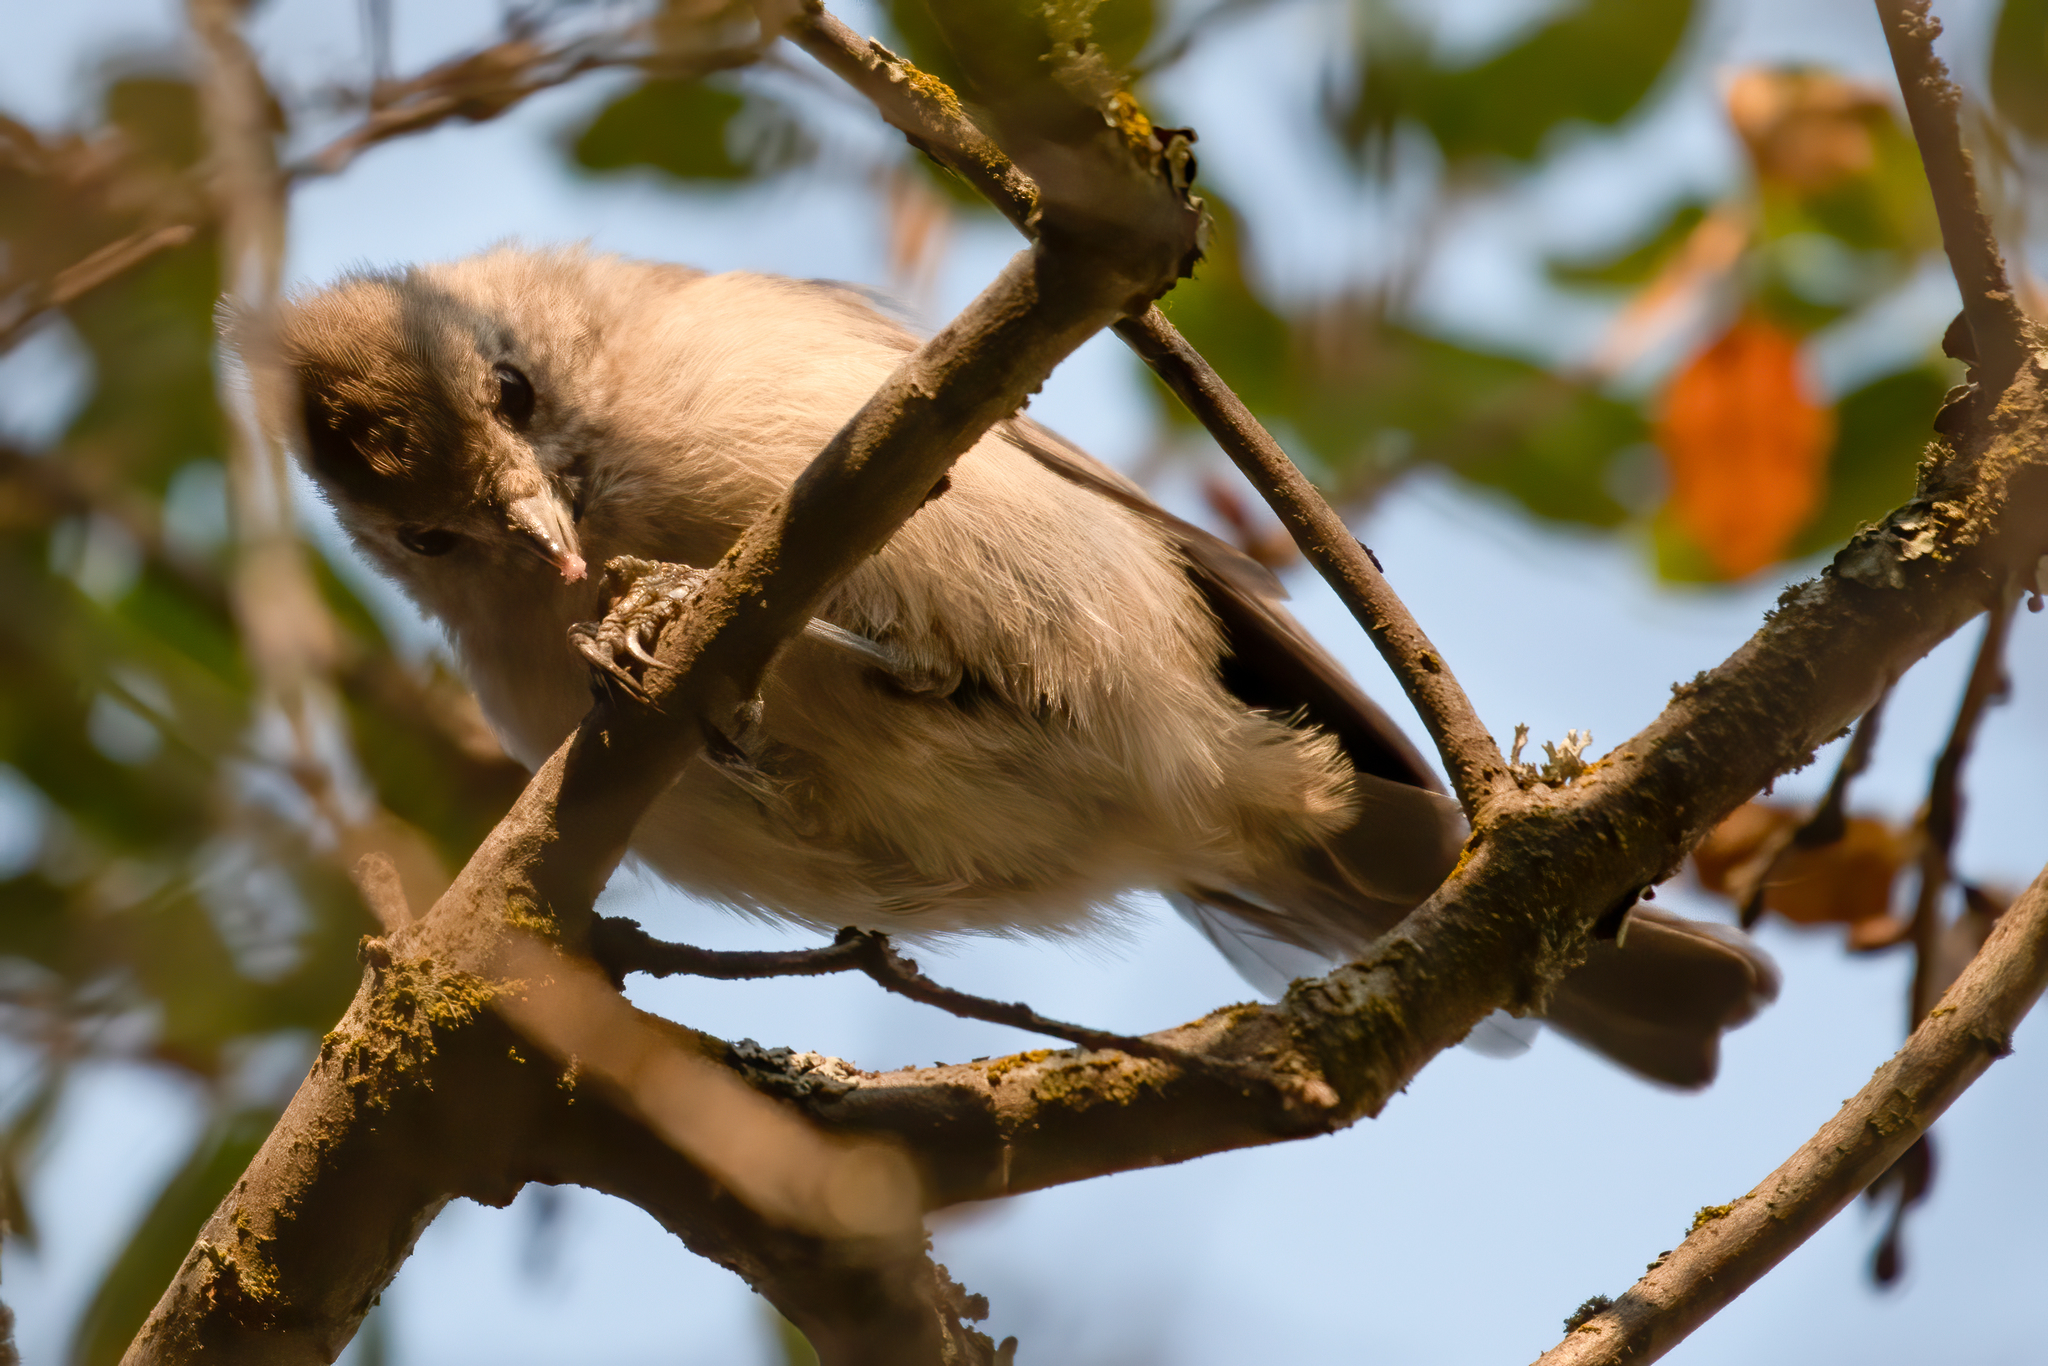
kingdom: Animalia
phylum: Chordata
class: Aves
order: Passeriformes
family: Paridae
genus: Baeolophus
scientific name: Baeolophus inornatus
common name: Oak titmouse
